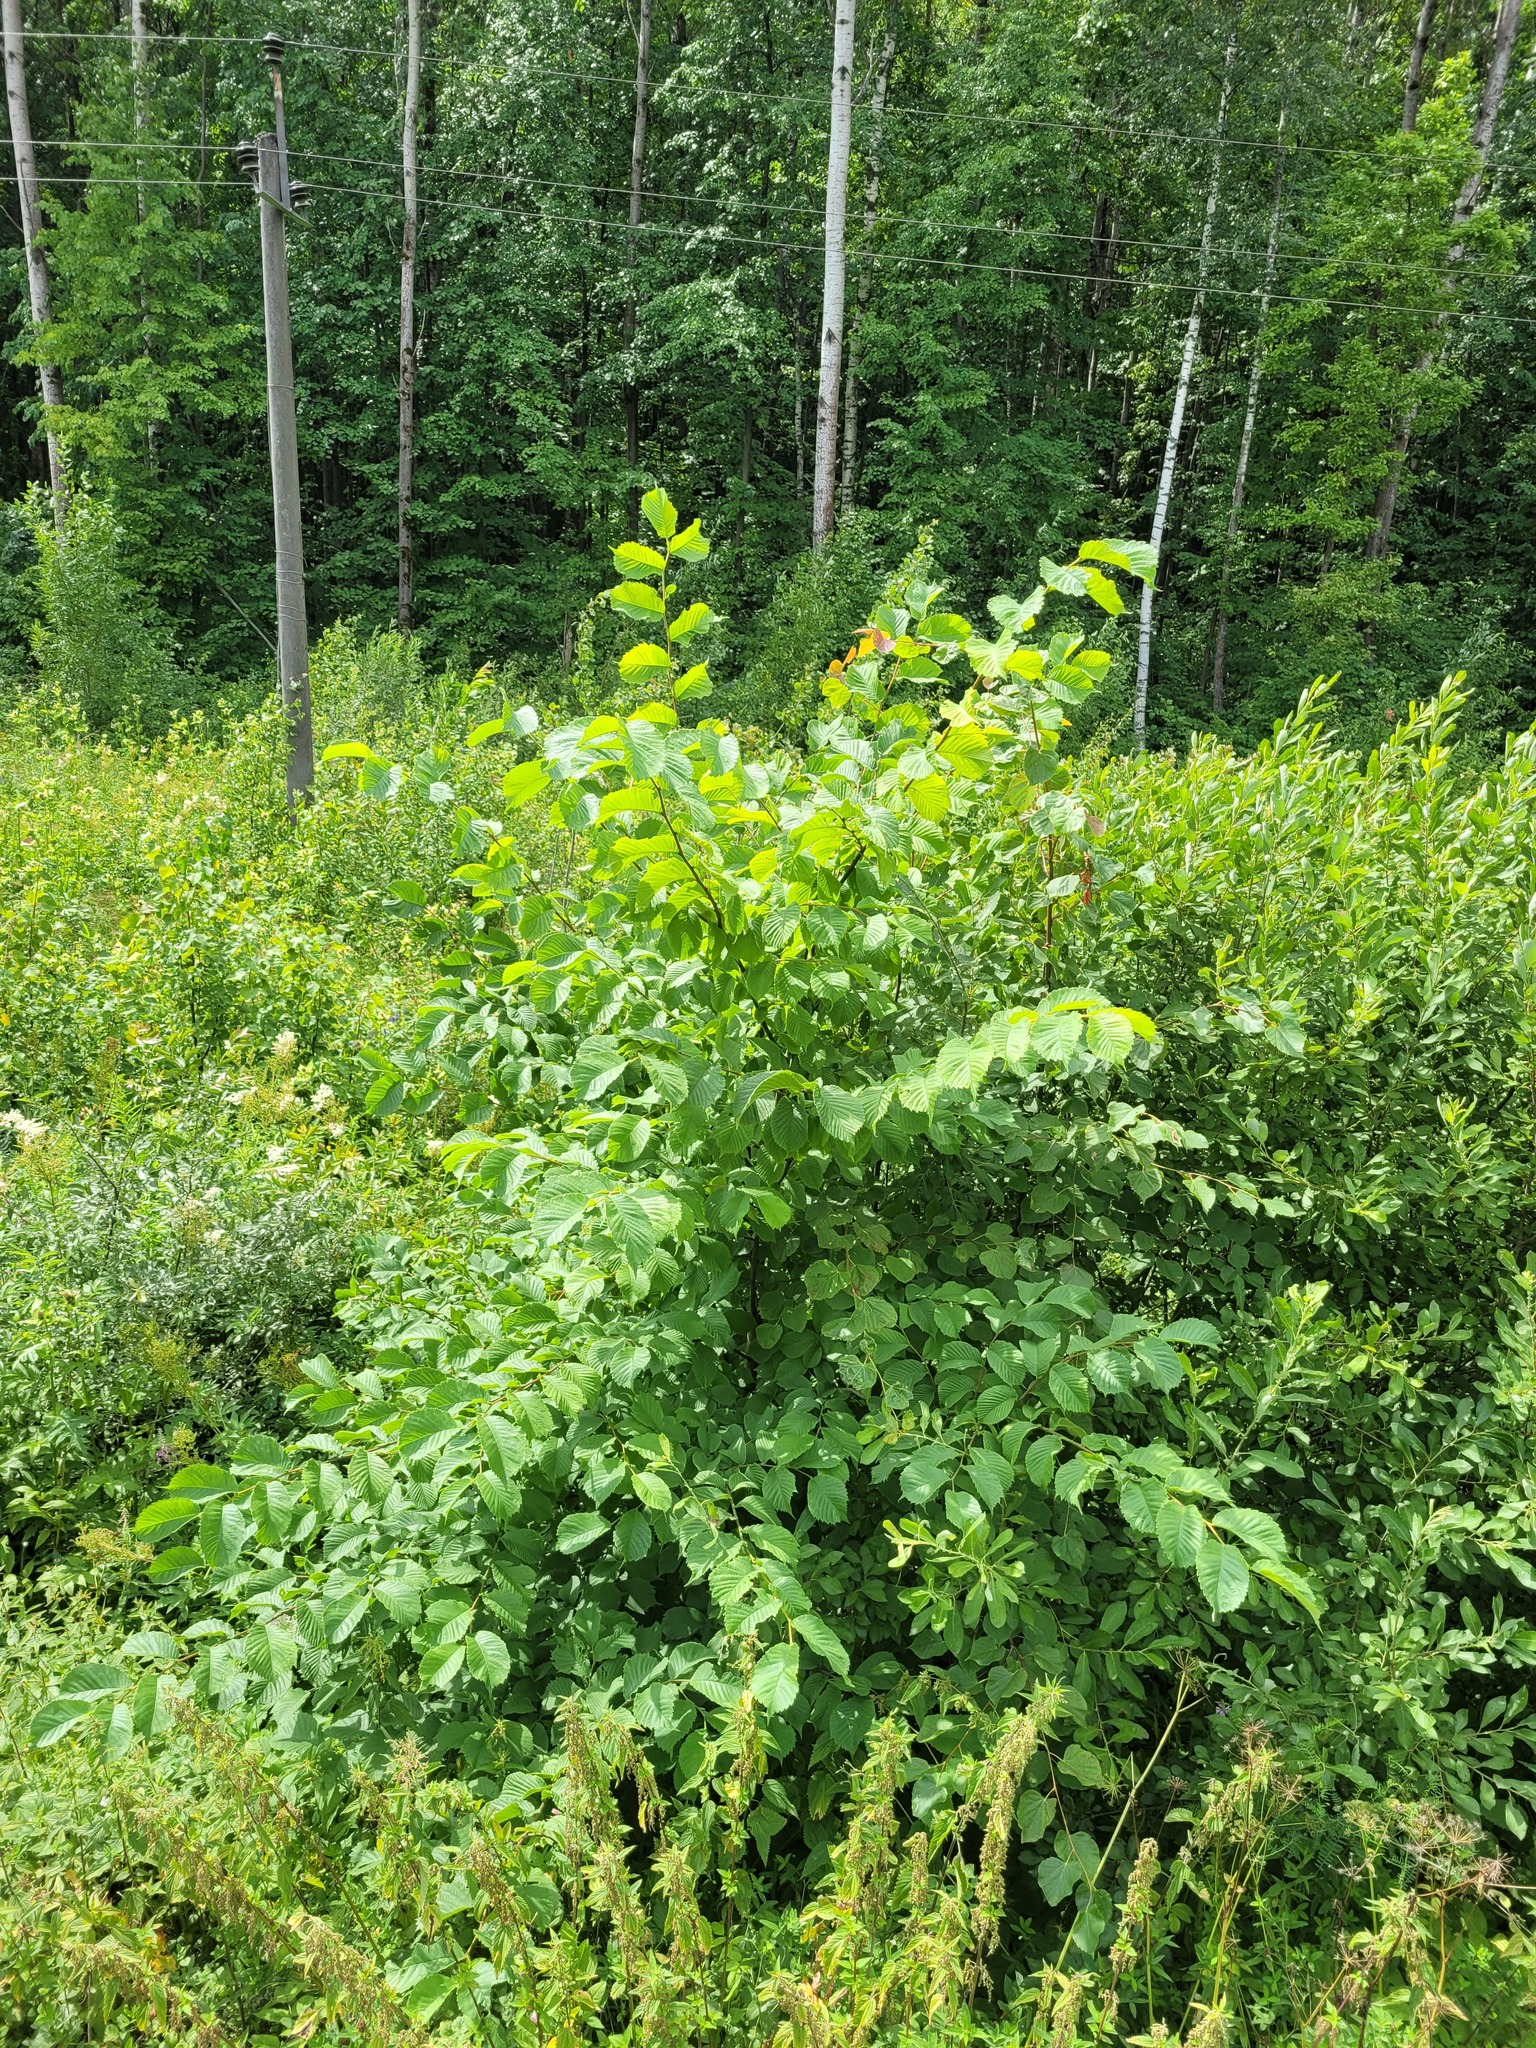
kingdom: Plantae
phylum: Tracheophyta
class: Magnoliopsida
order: Rosales
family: Ulmaceae
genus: Ulmus
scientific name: Ulmus glabra
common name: Wych elm
